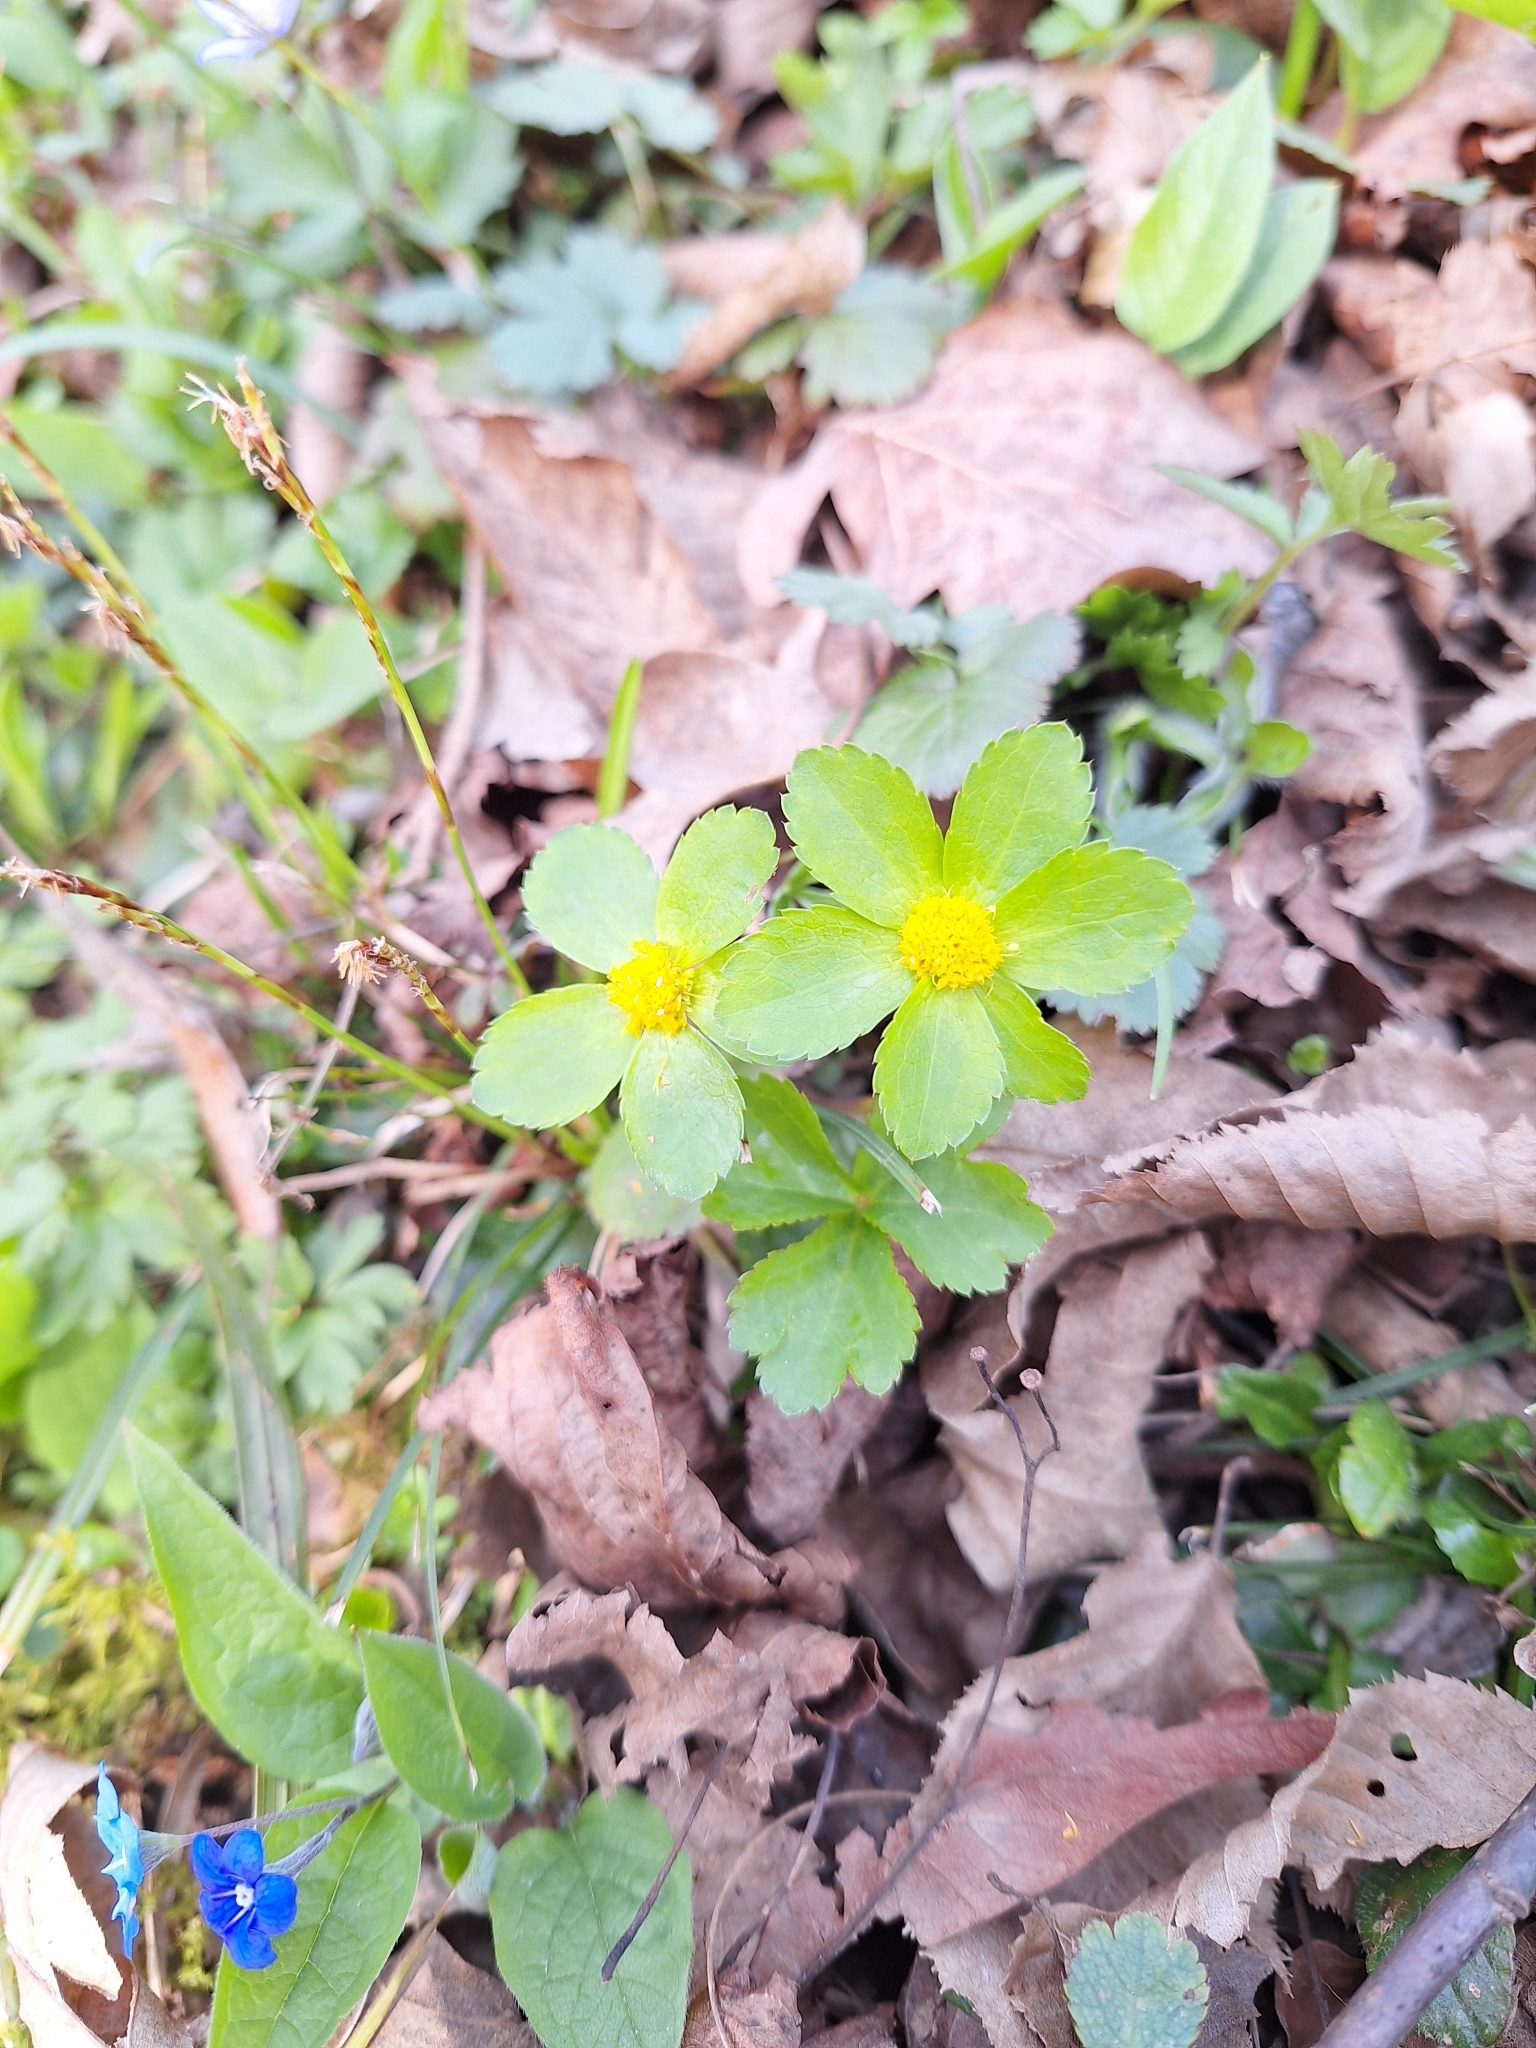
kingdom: Plantae
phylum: Tracheophyta
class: Magnoliopsida
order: Apiales
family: Apiaceae
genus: Sanicula
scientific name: Sanicula epipactis
